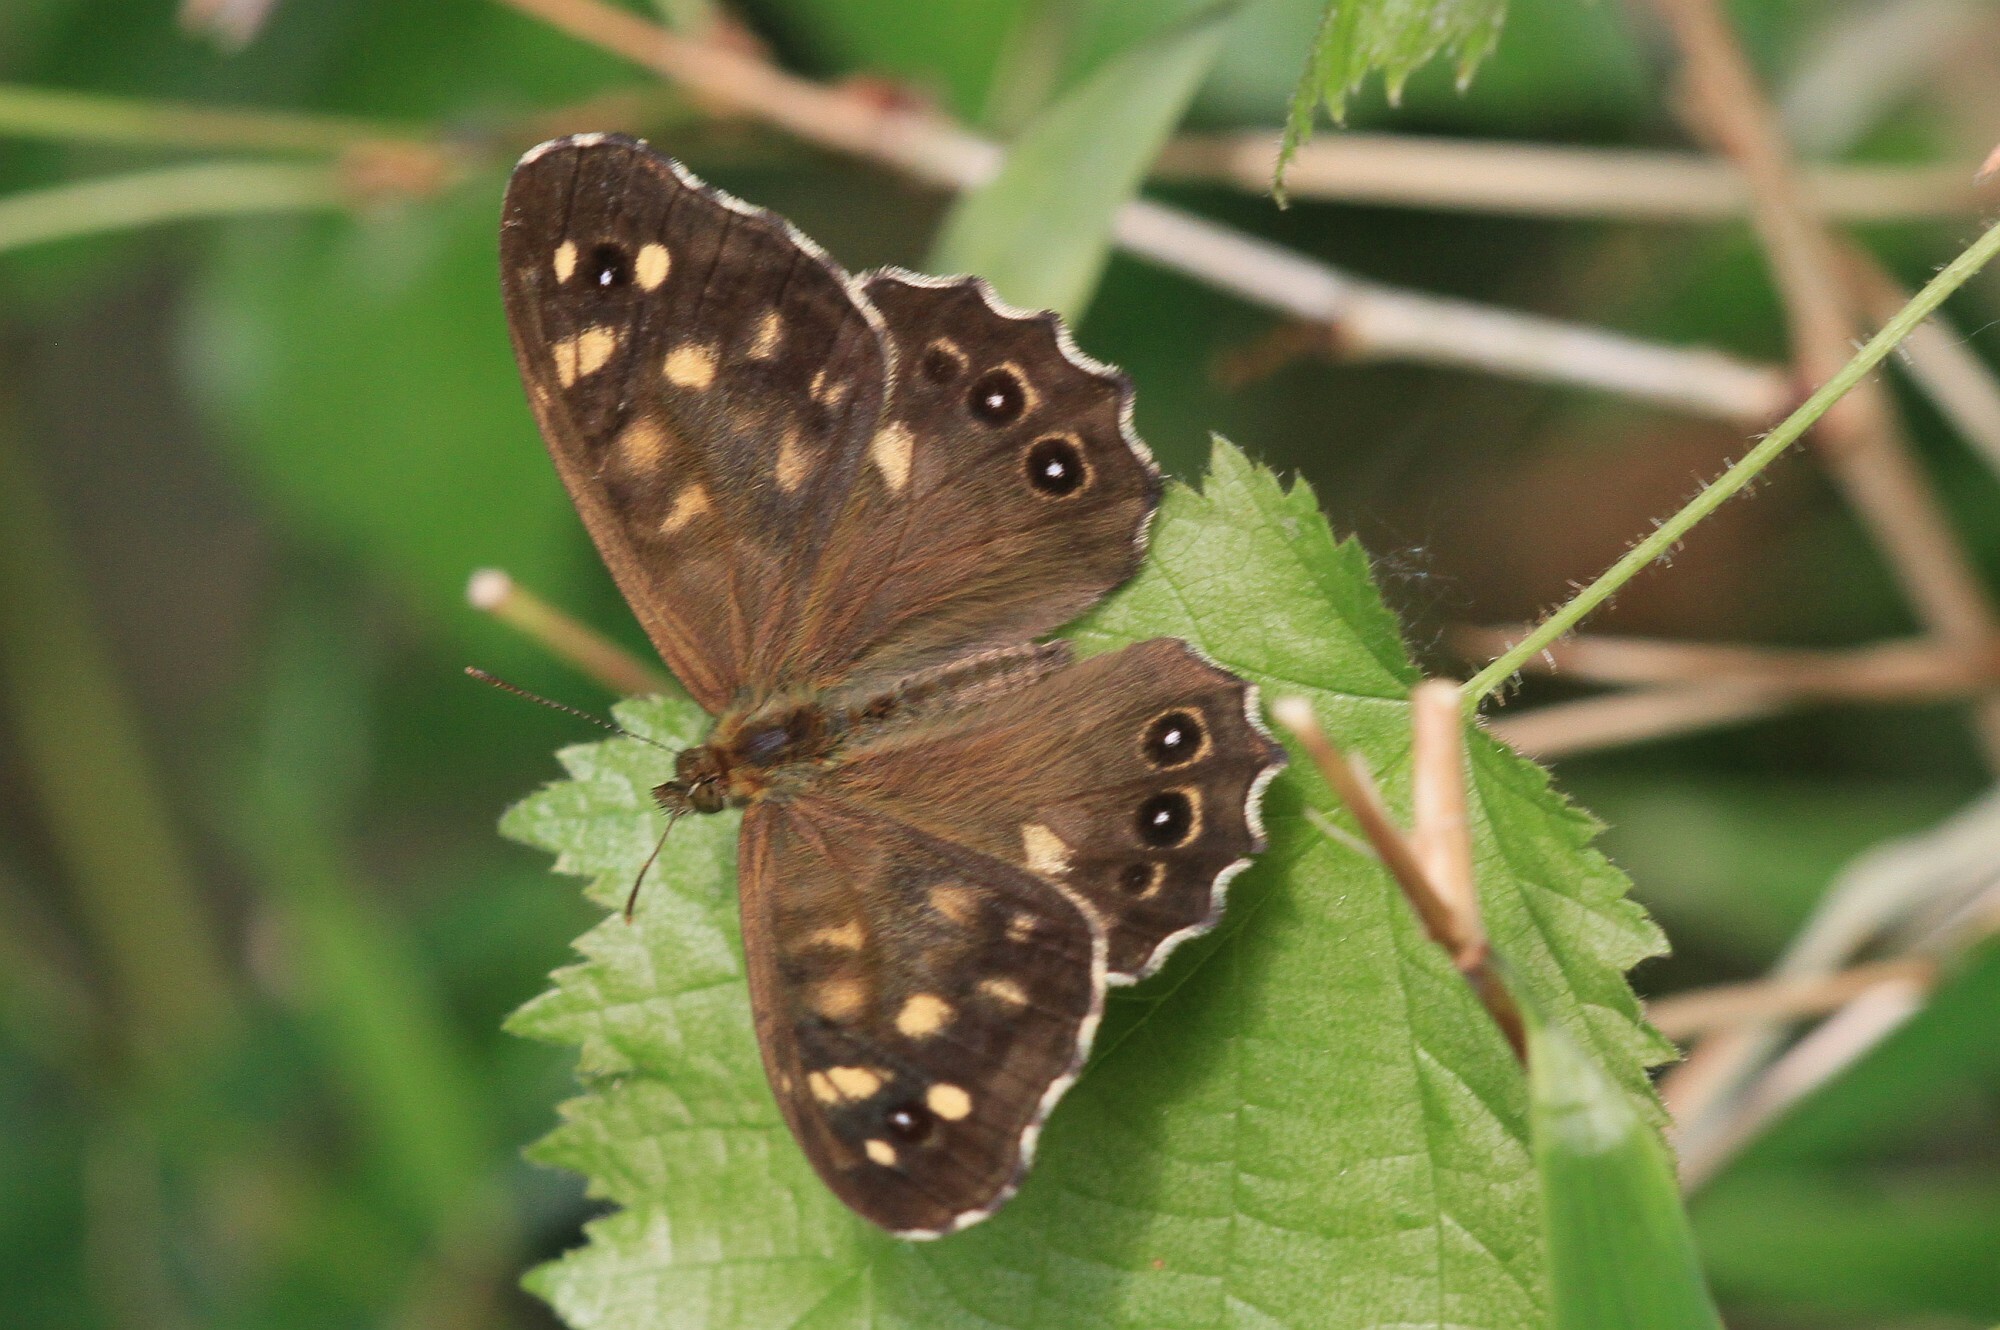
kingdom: Animalia
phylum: Arthropoda
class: Insecta
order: Lepidoptera
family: Nymphalidae
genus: Pararge
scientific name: Pararge aegeria
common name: Speckled wood
